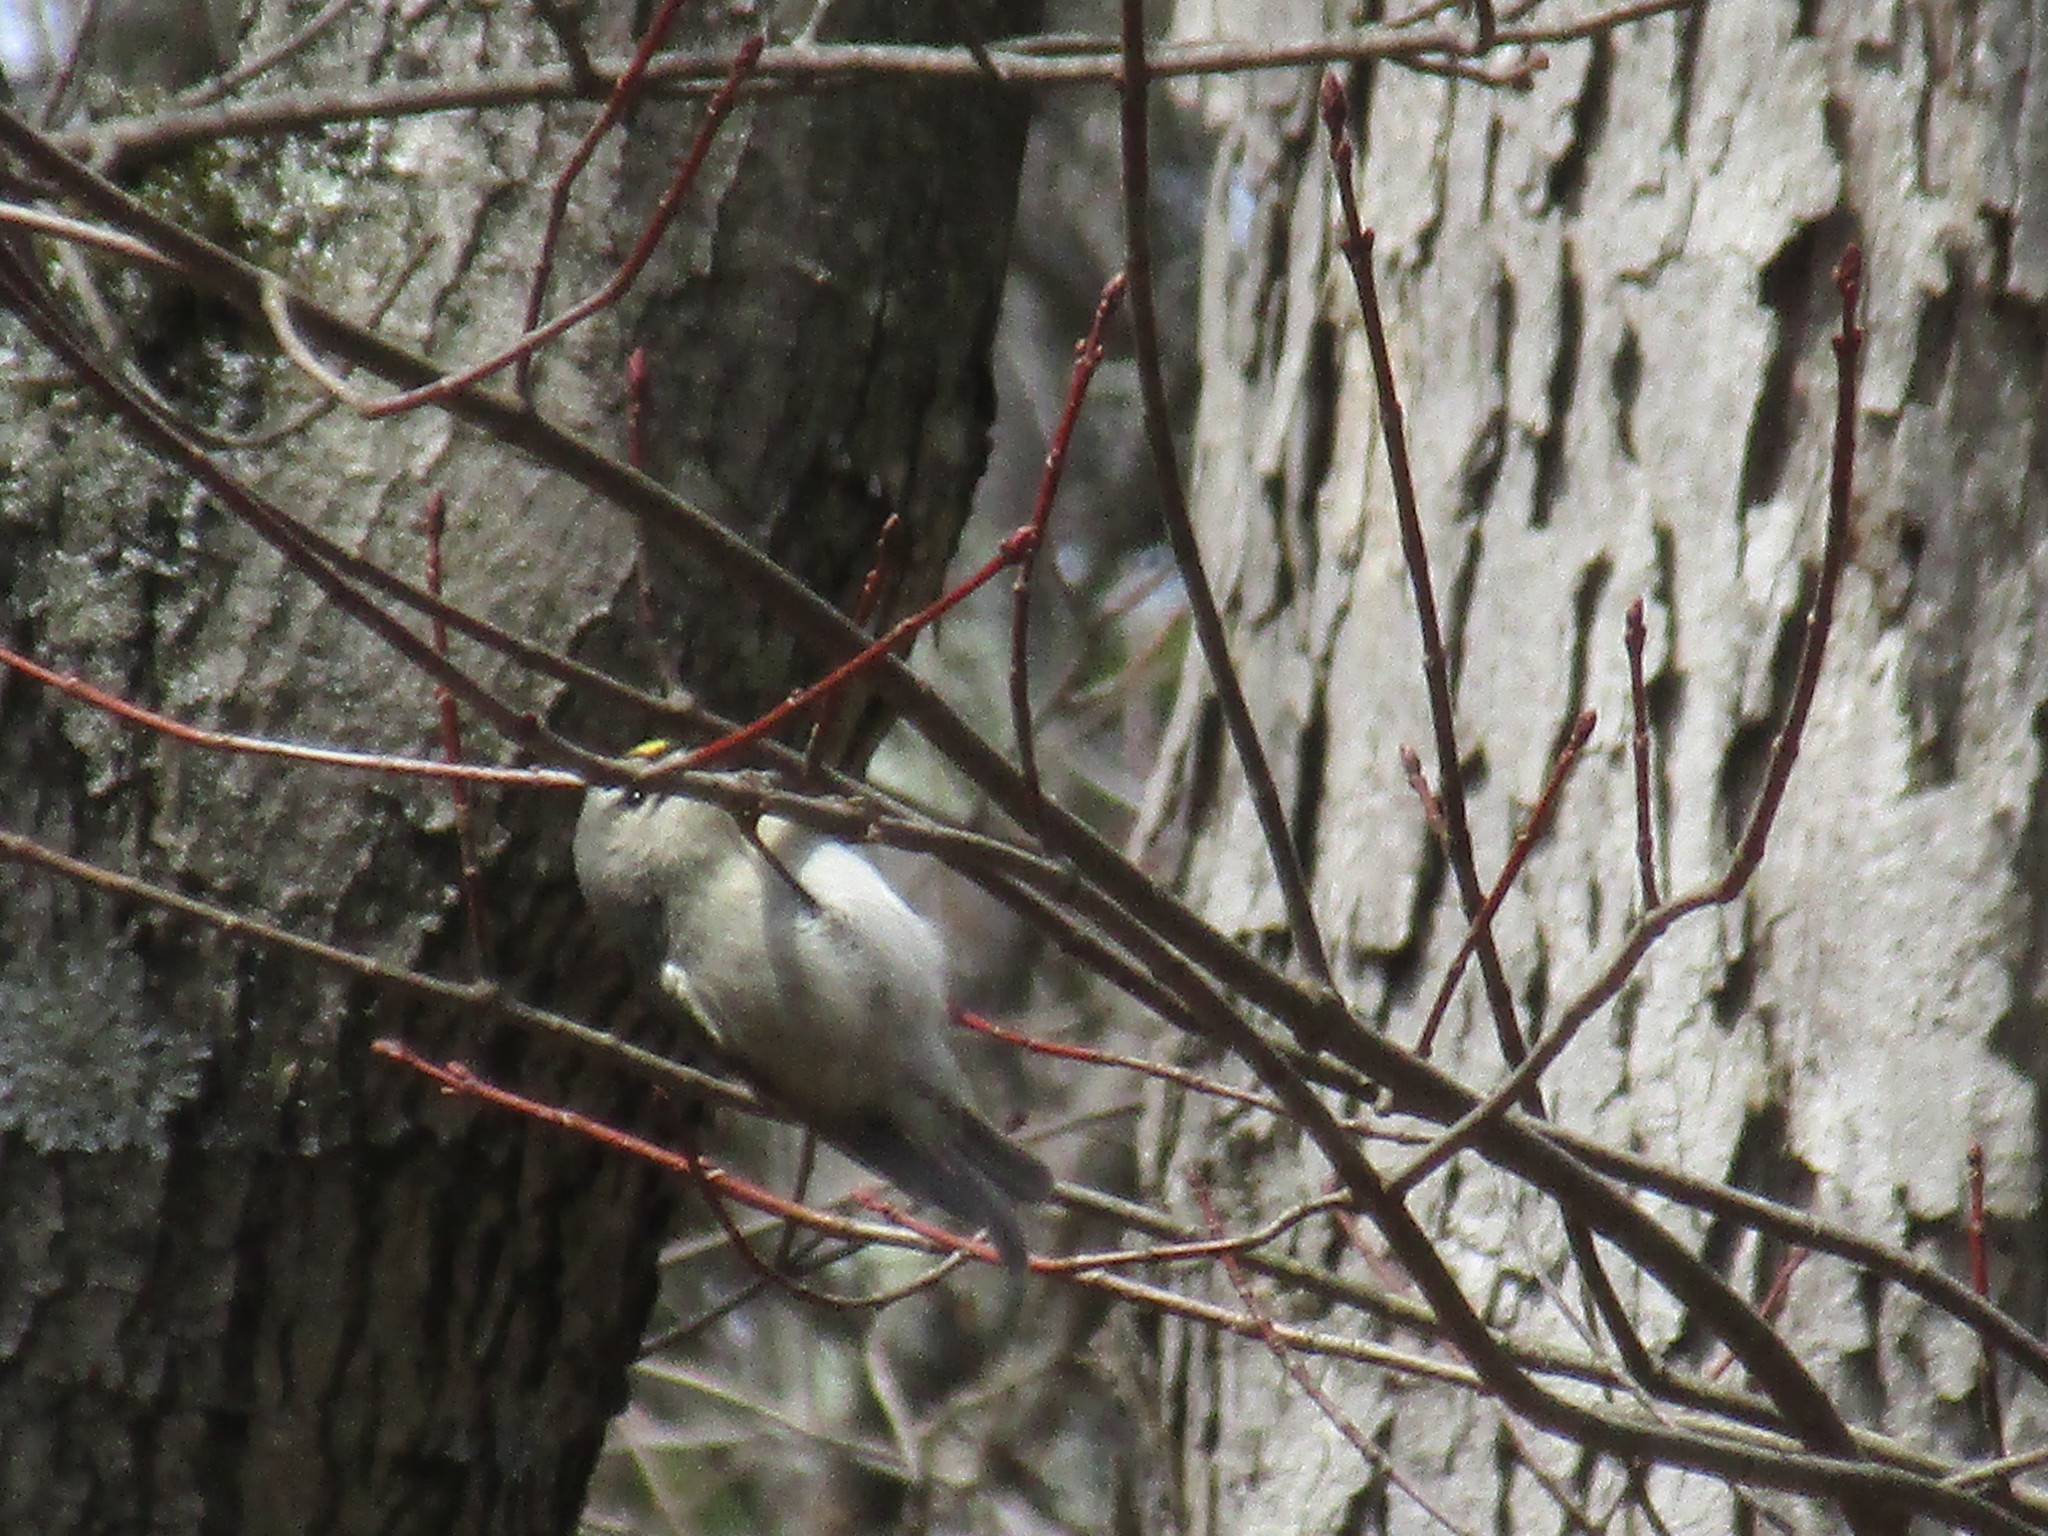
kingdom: Animalia
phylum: Chordata
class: Aves
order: Passeriformes
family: Regulidae
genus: Regulus
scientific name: Regulus satrapa
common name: Golden-crowned kinglet
